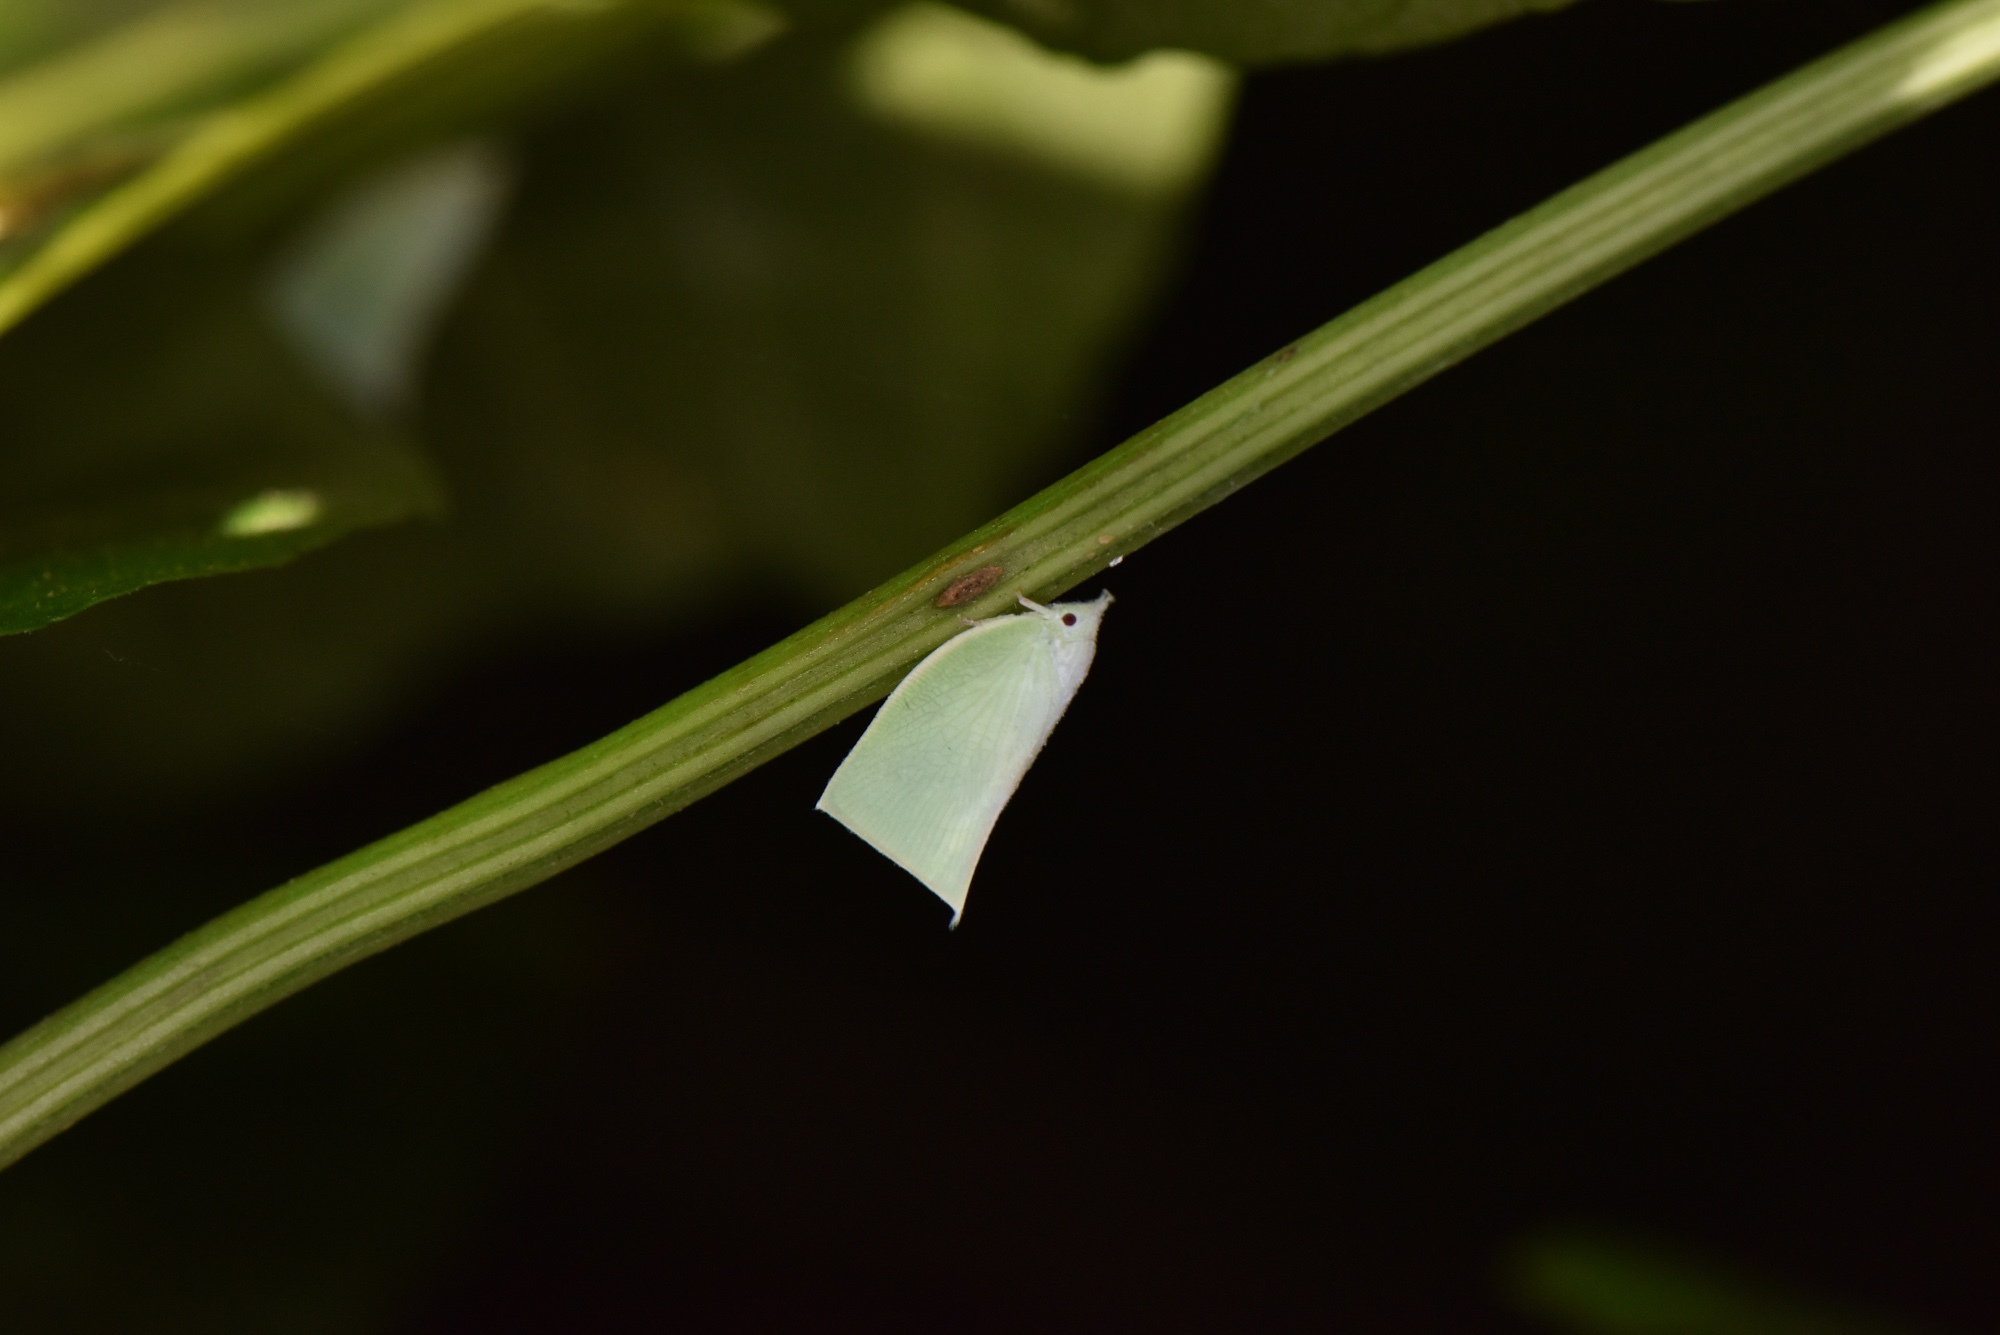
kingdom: Animalia
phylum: Arthropoda
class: Insecta
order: Hemiptera
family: Flatidae
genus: Phylliana
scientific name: Phylliana alba
